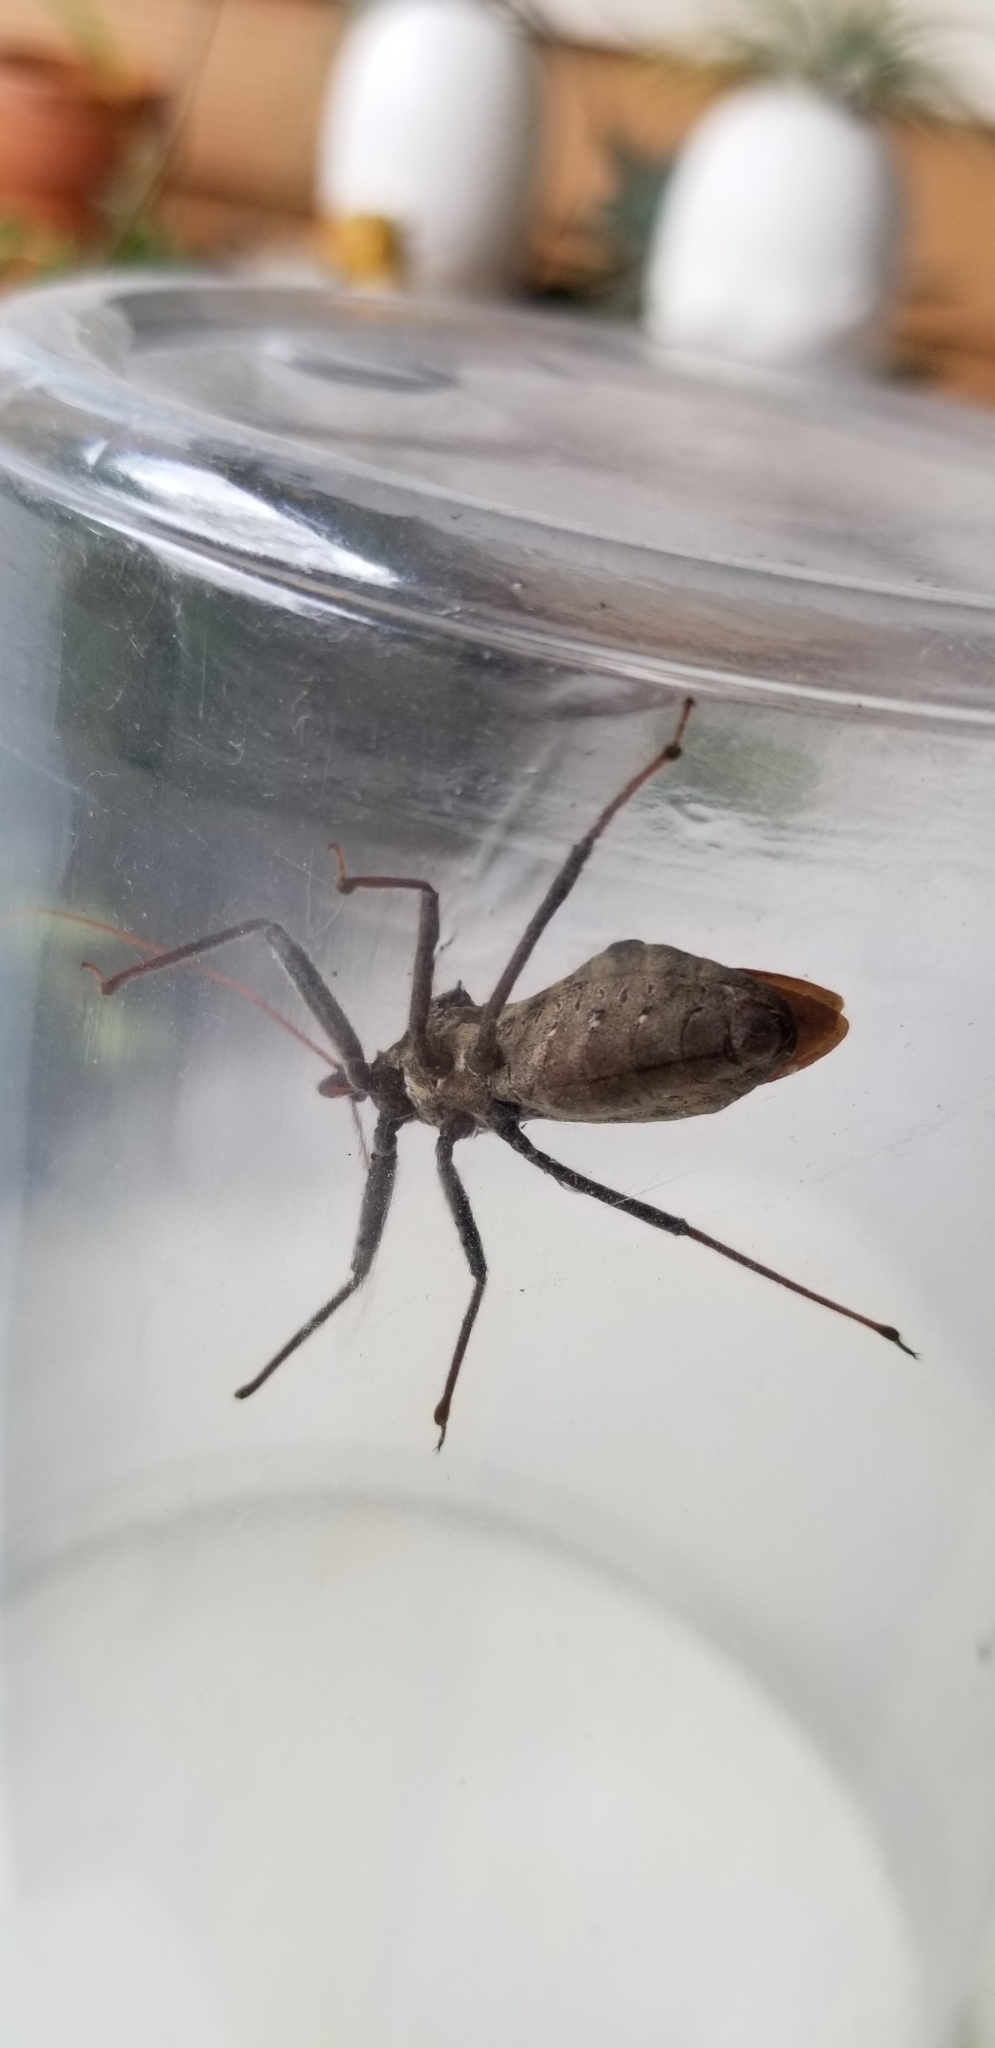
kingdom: Animalia
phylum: Arthropoda
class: Insecta
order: Hemiptera
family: Reduviidae
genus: Arilus
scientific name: Arilus cristatus
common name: North american wheel bug
